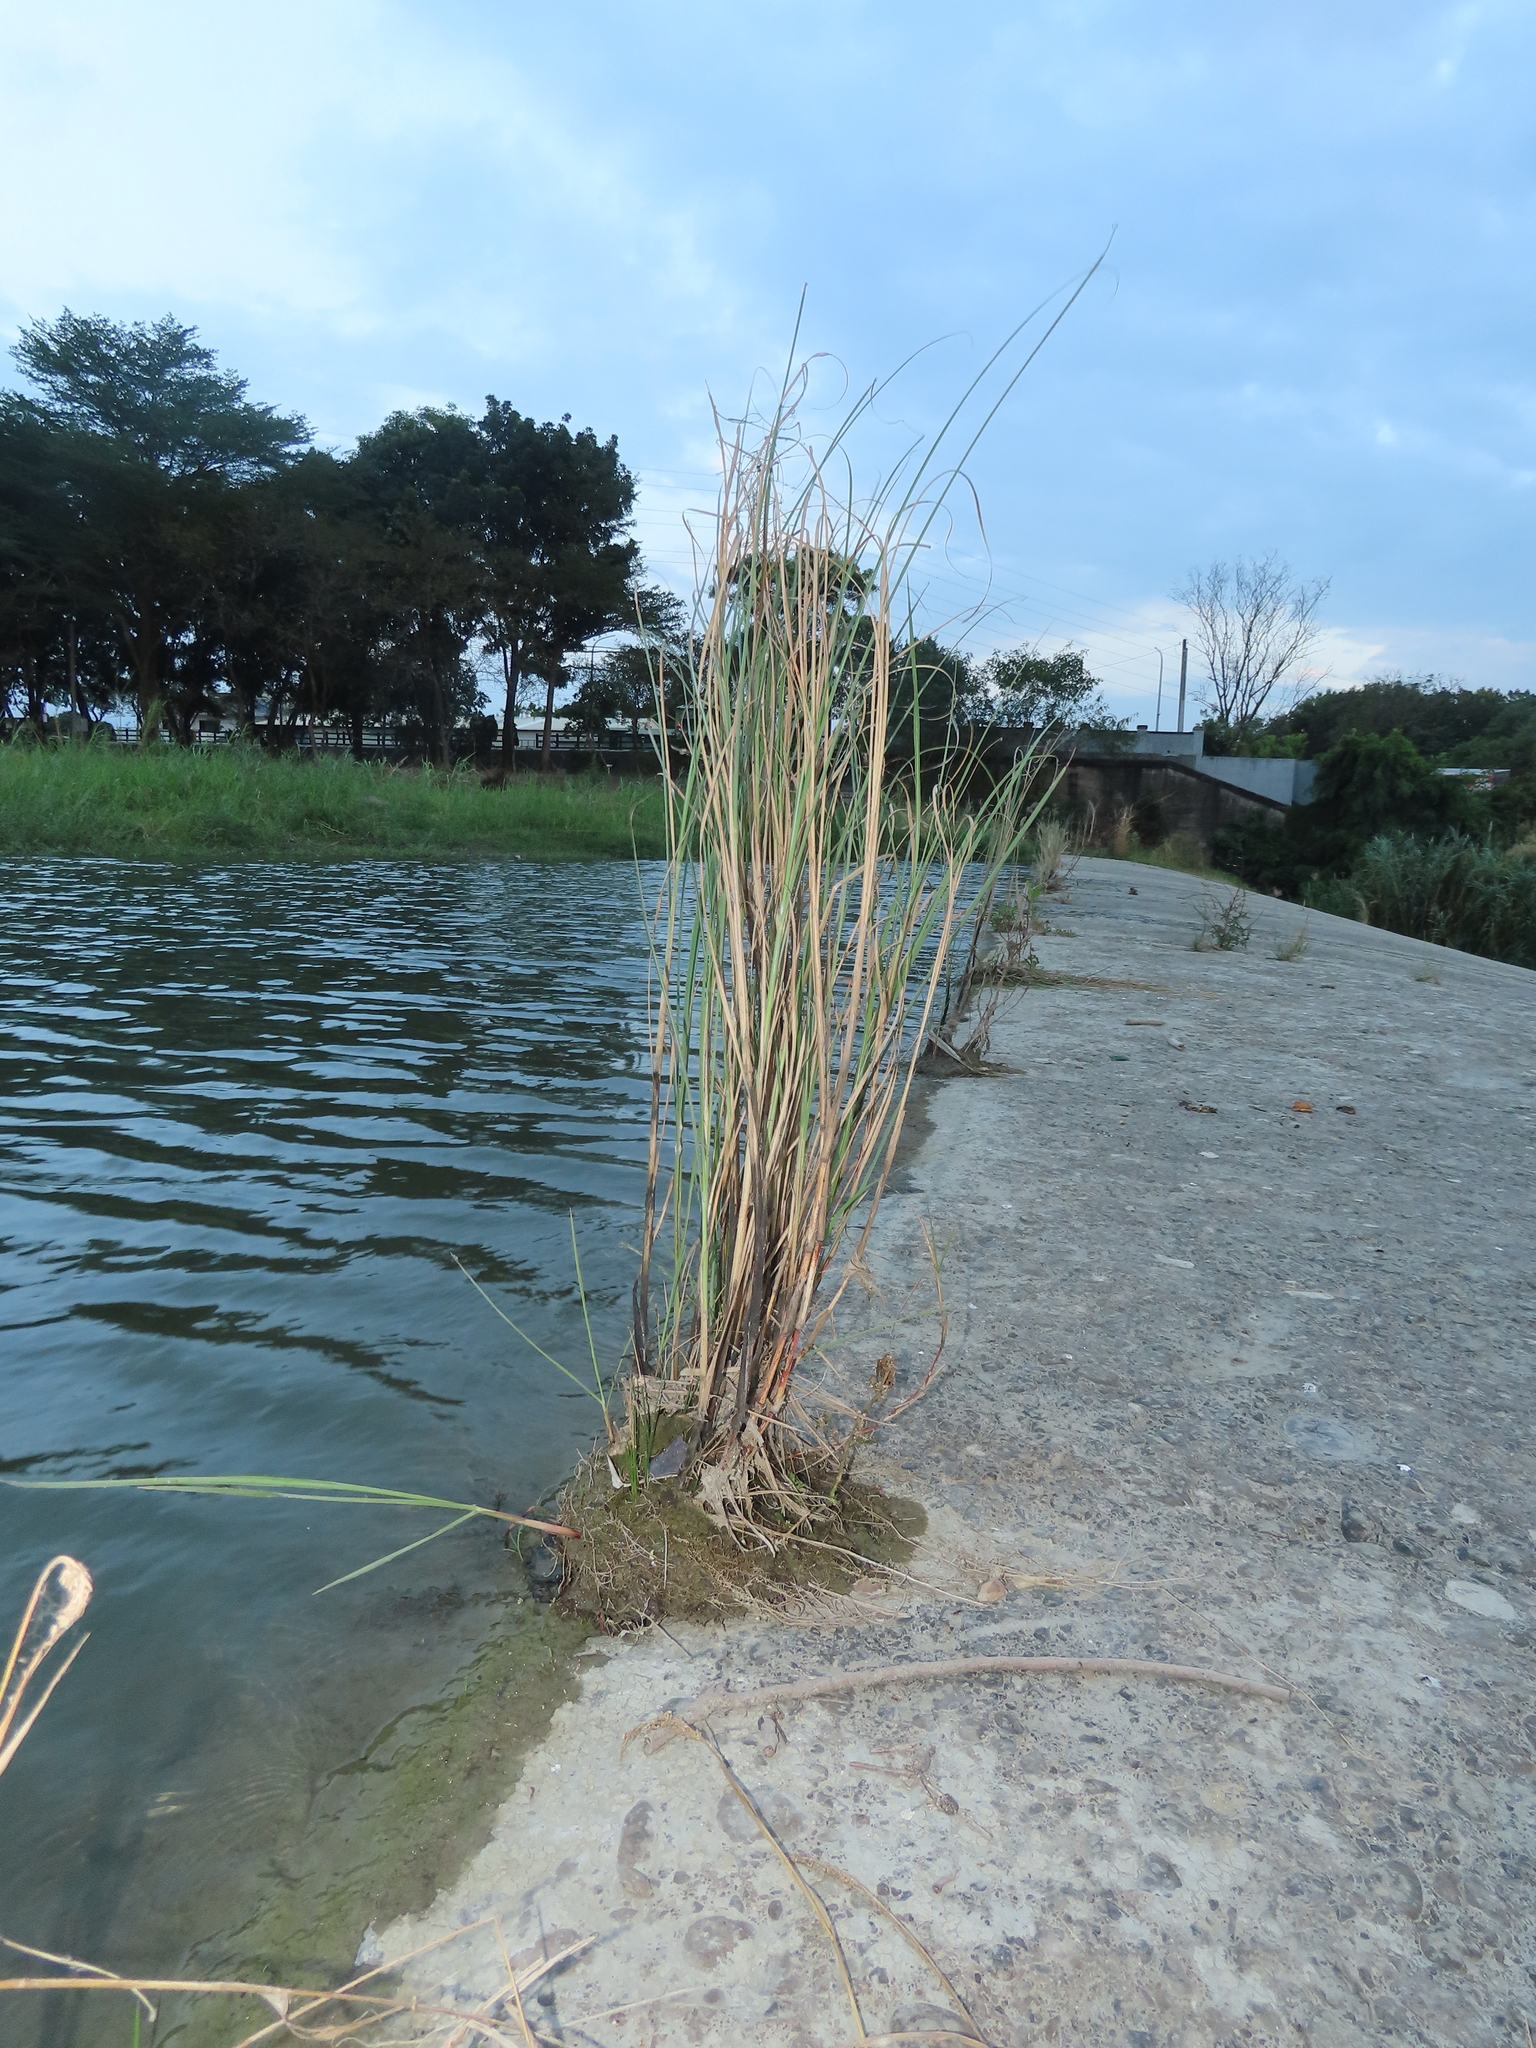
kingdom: Plantae
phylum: Tracheophyta
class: Liliopsida
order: Poales
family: Cyperaceae
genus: Eleocharis
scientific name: Eleocharis geniculata
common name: Canada spikesedge
